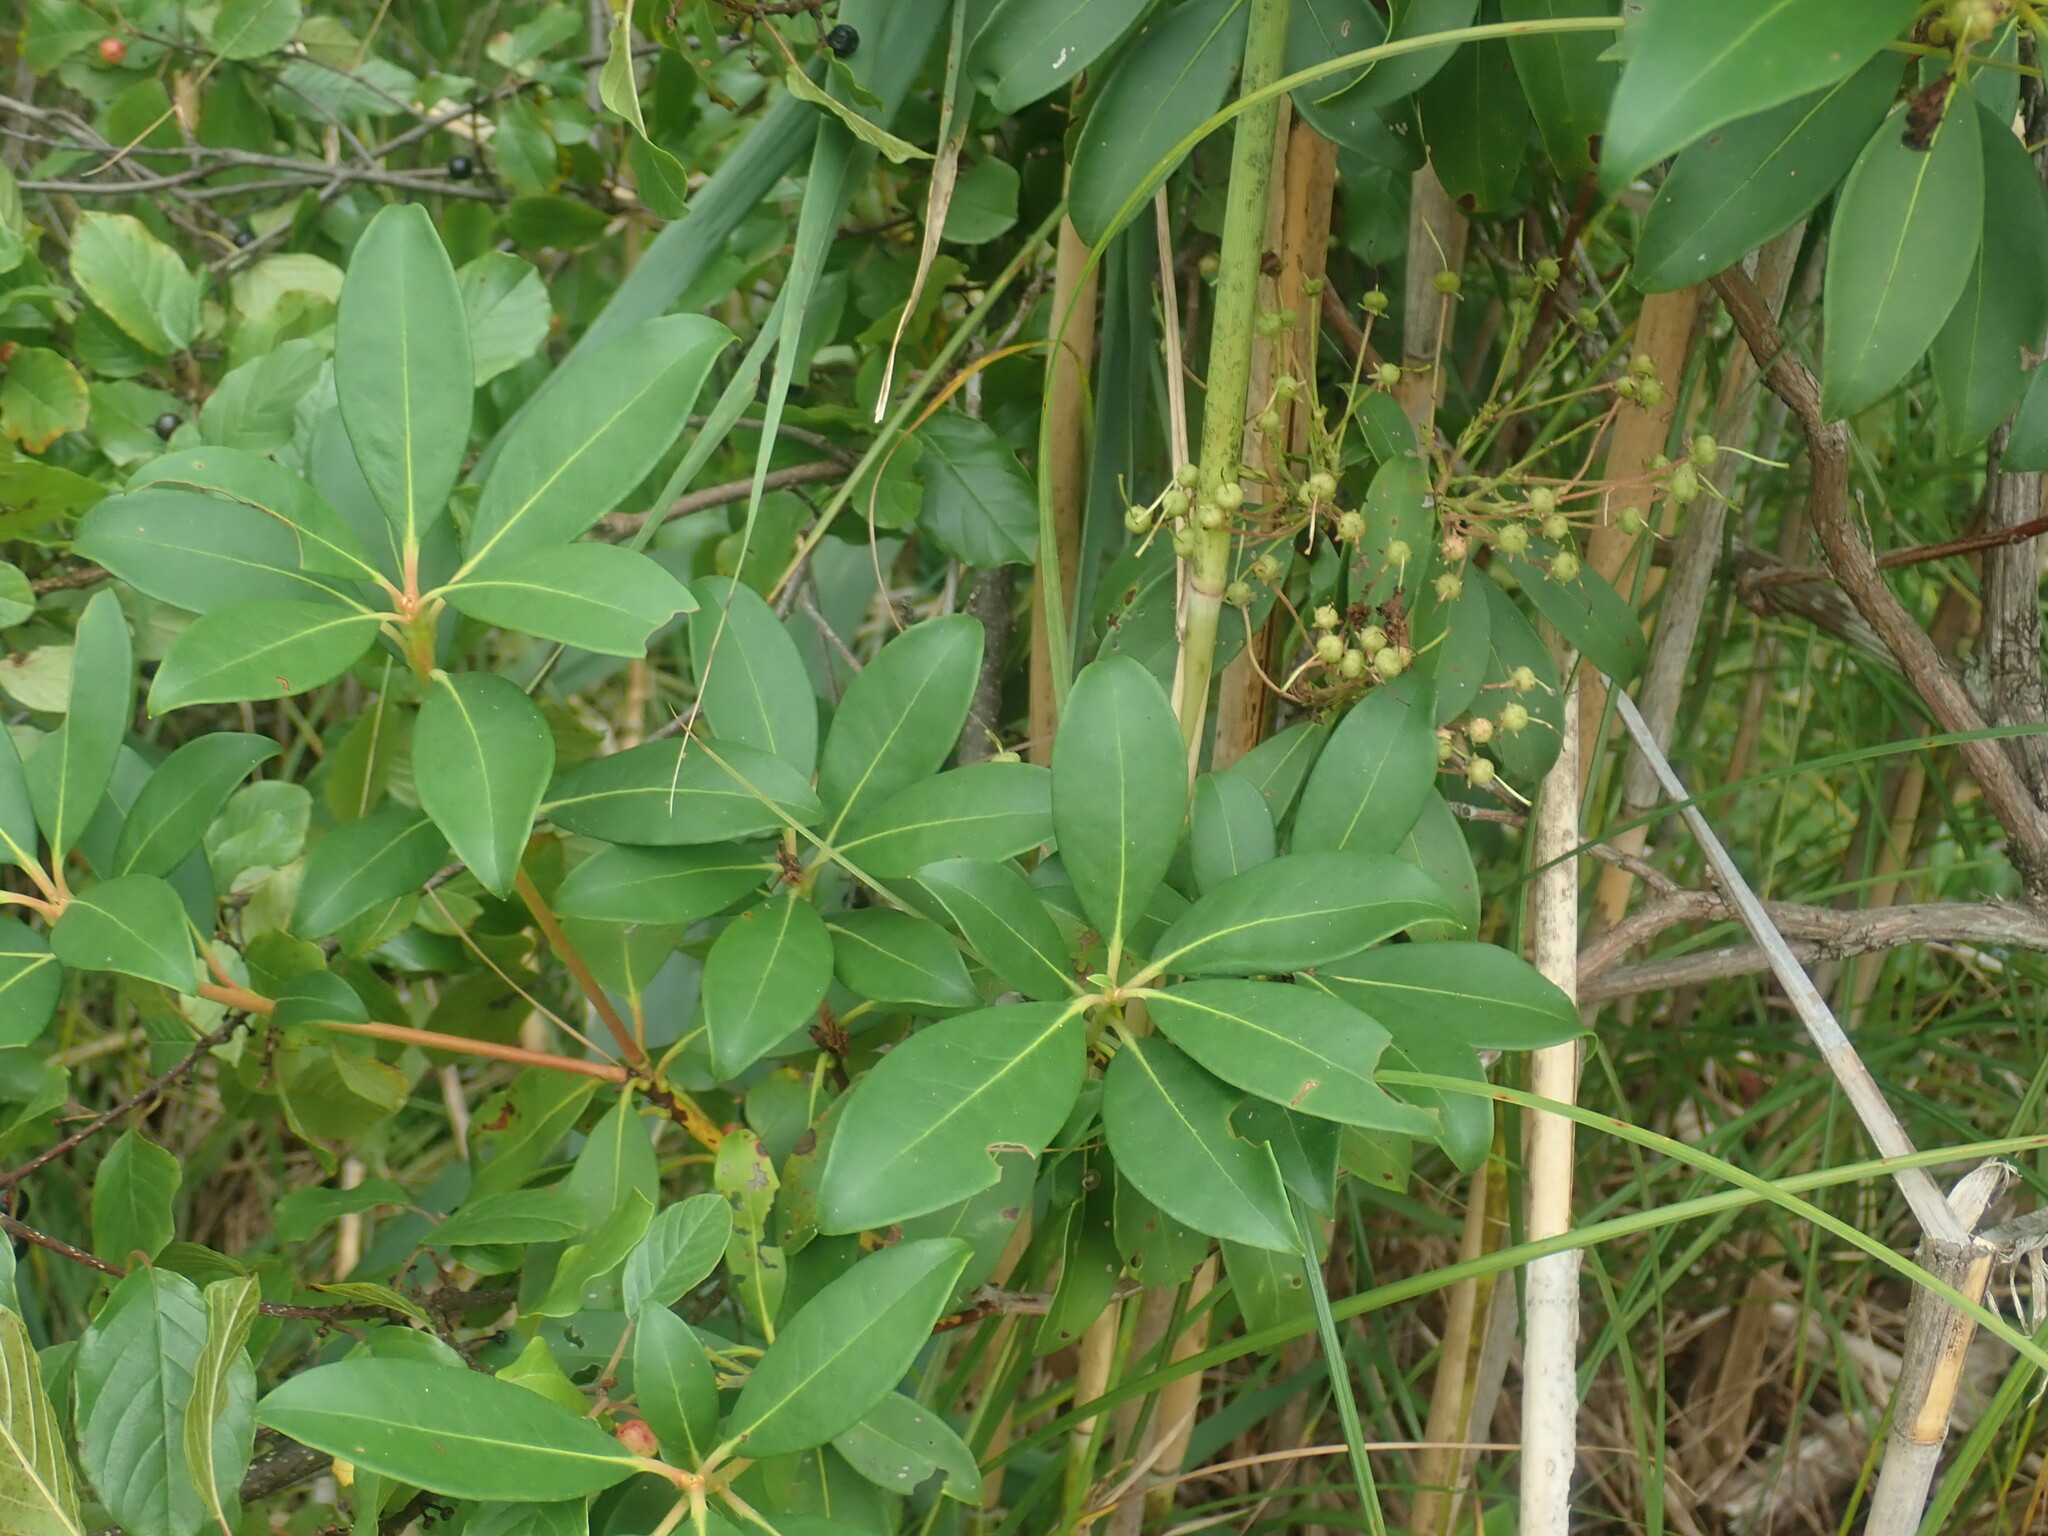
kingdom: Plantae
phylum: Tracheophyta
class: Magnoliopsida
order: Ericales
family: Ericaceae
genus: Kalmia
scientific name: Kalmia latifolia
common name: Mountain-laurel
